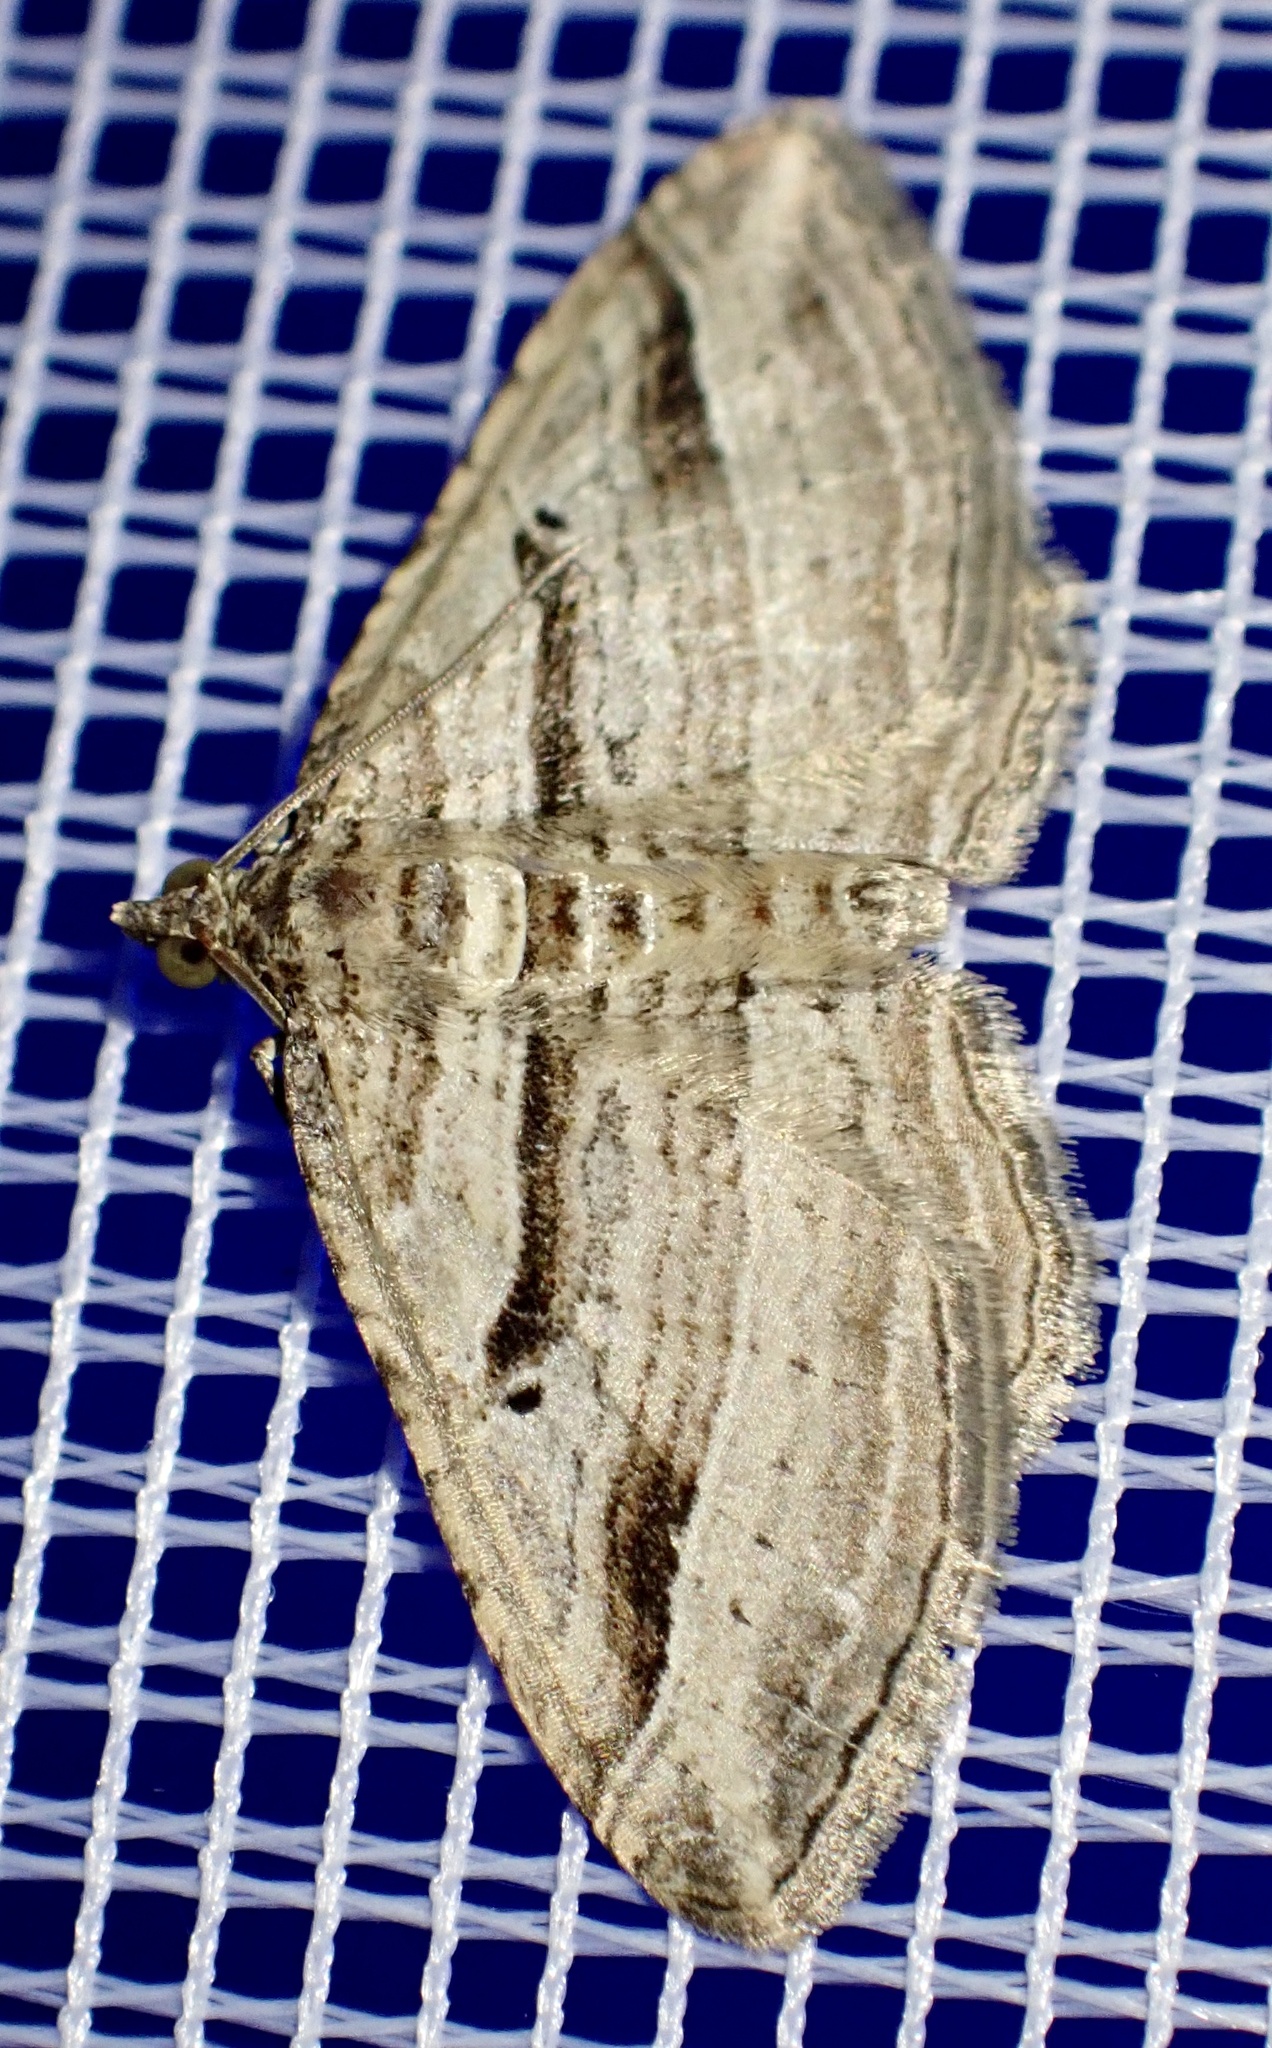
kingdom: Animalia
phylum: Arthropoda
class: Insecta
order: Lepidoptera
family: Geometridae
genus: Costaconvexa
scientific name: Costaconvexa polygrammata
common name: Many-lined
